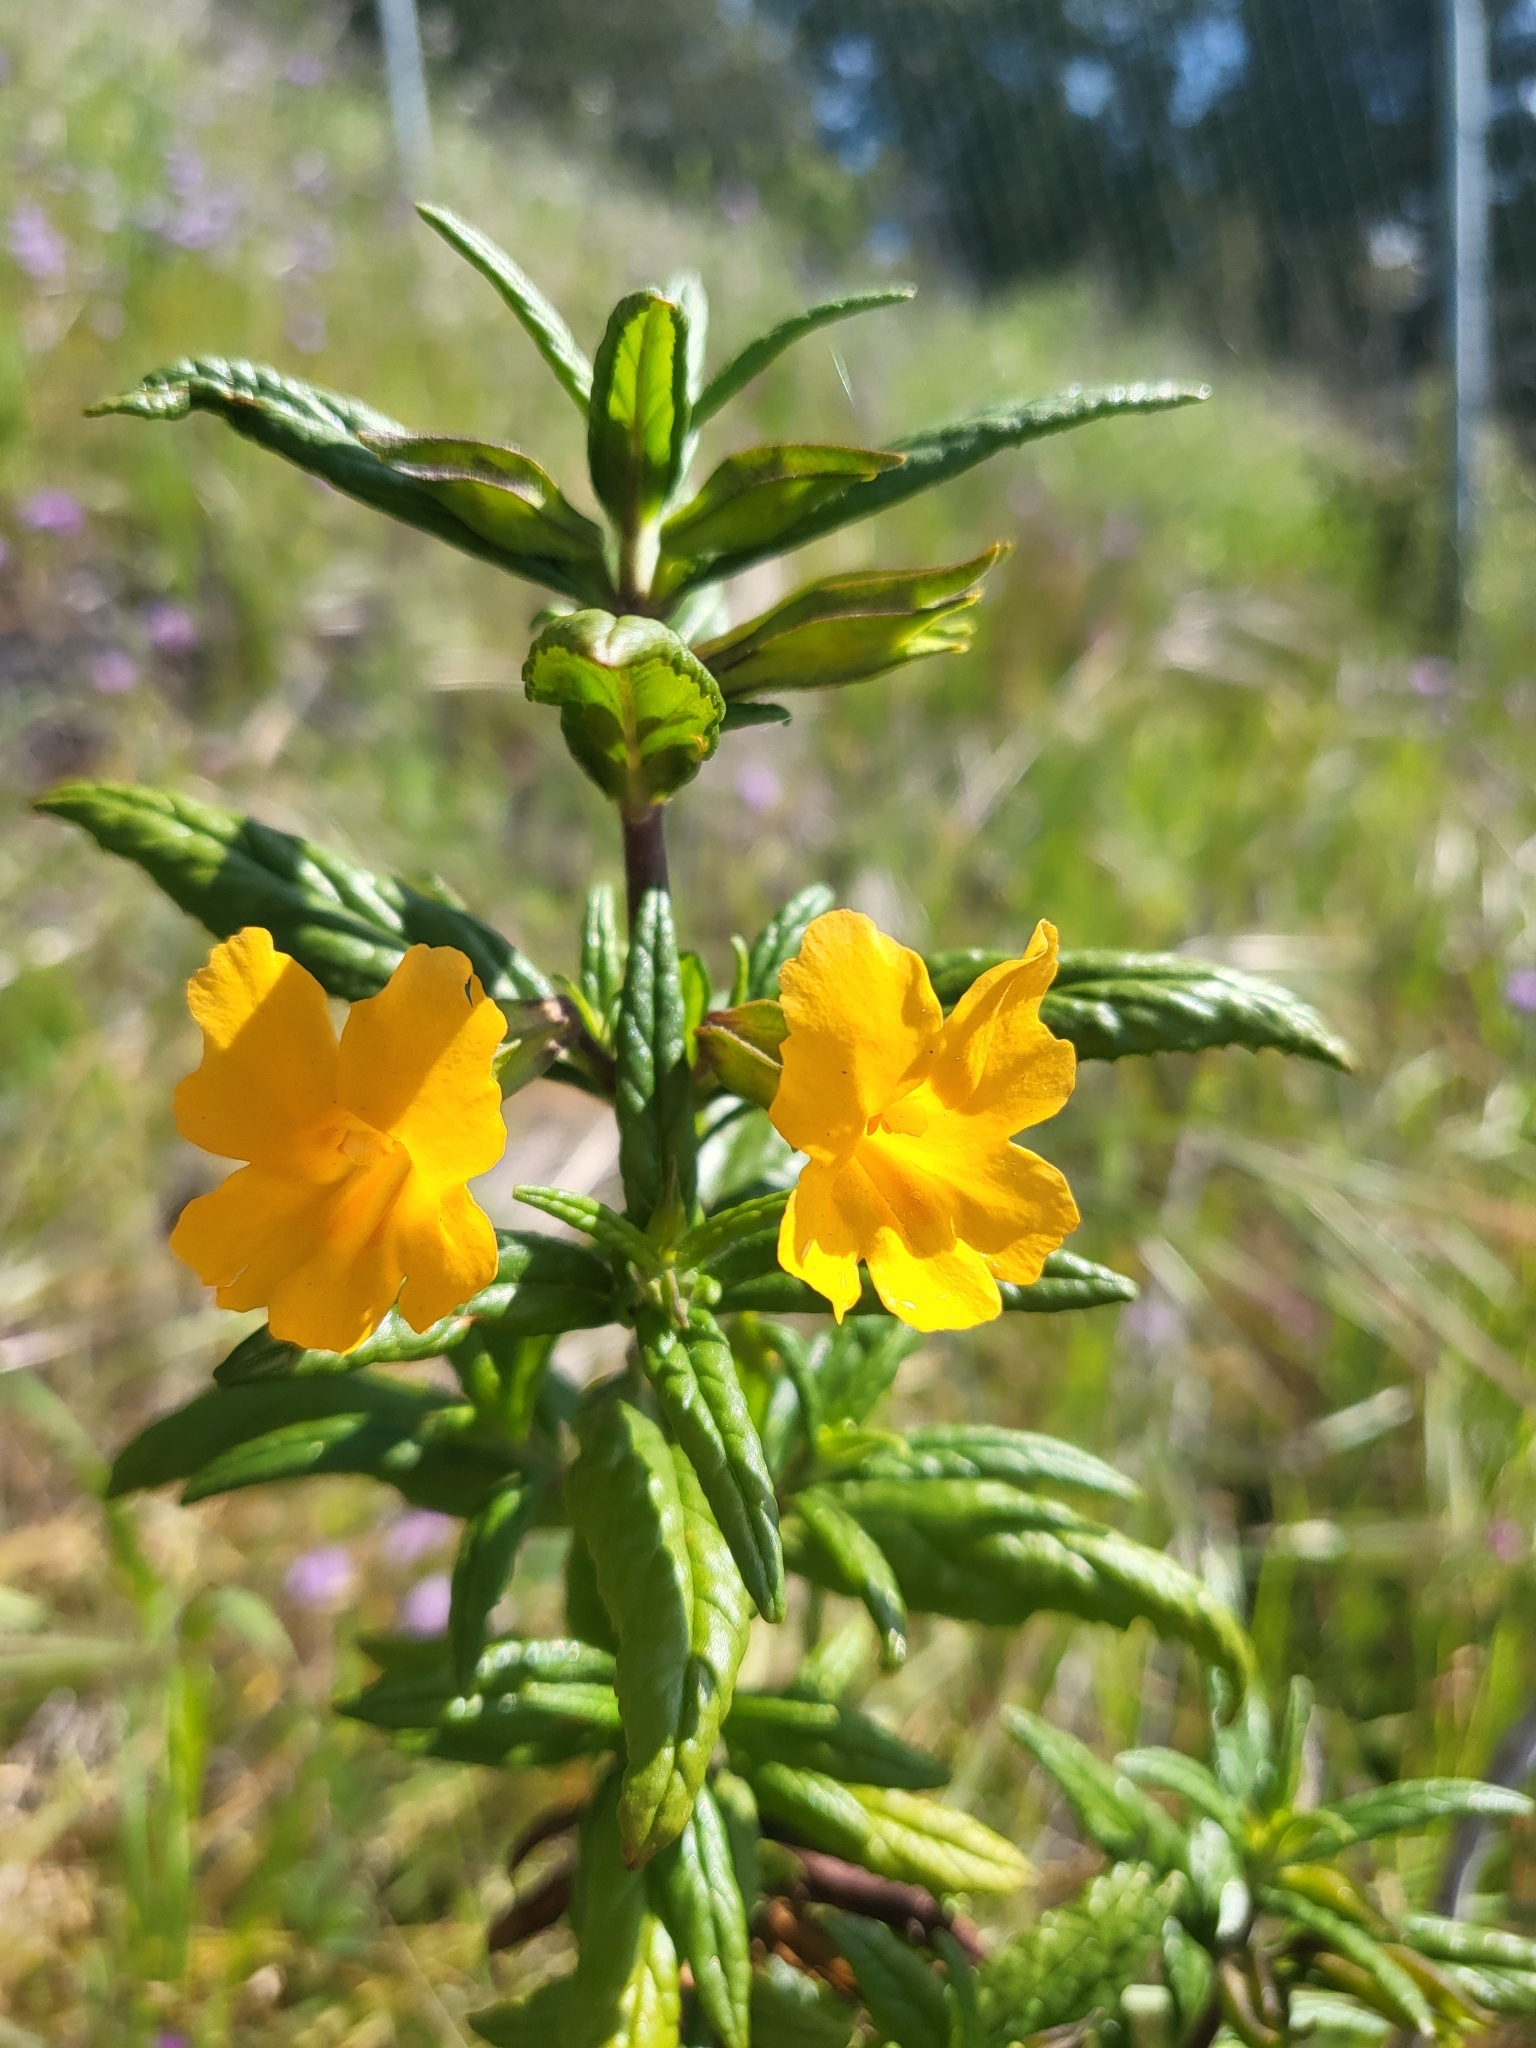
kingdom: Plantae
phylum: Tracheophyta
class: Magnoliopsida
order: Lamiales
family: Phrymaceae
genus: Diplacus
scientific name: Diplacus aurantiacus
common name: Bush monkey-flower
